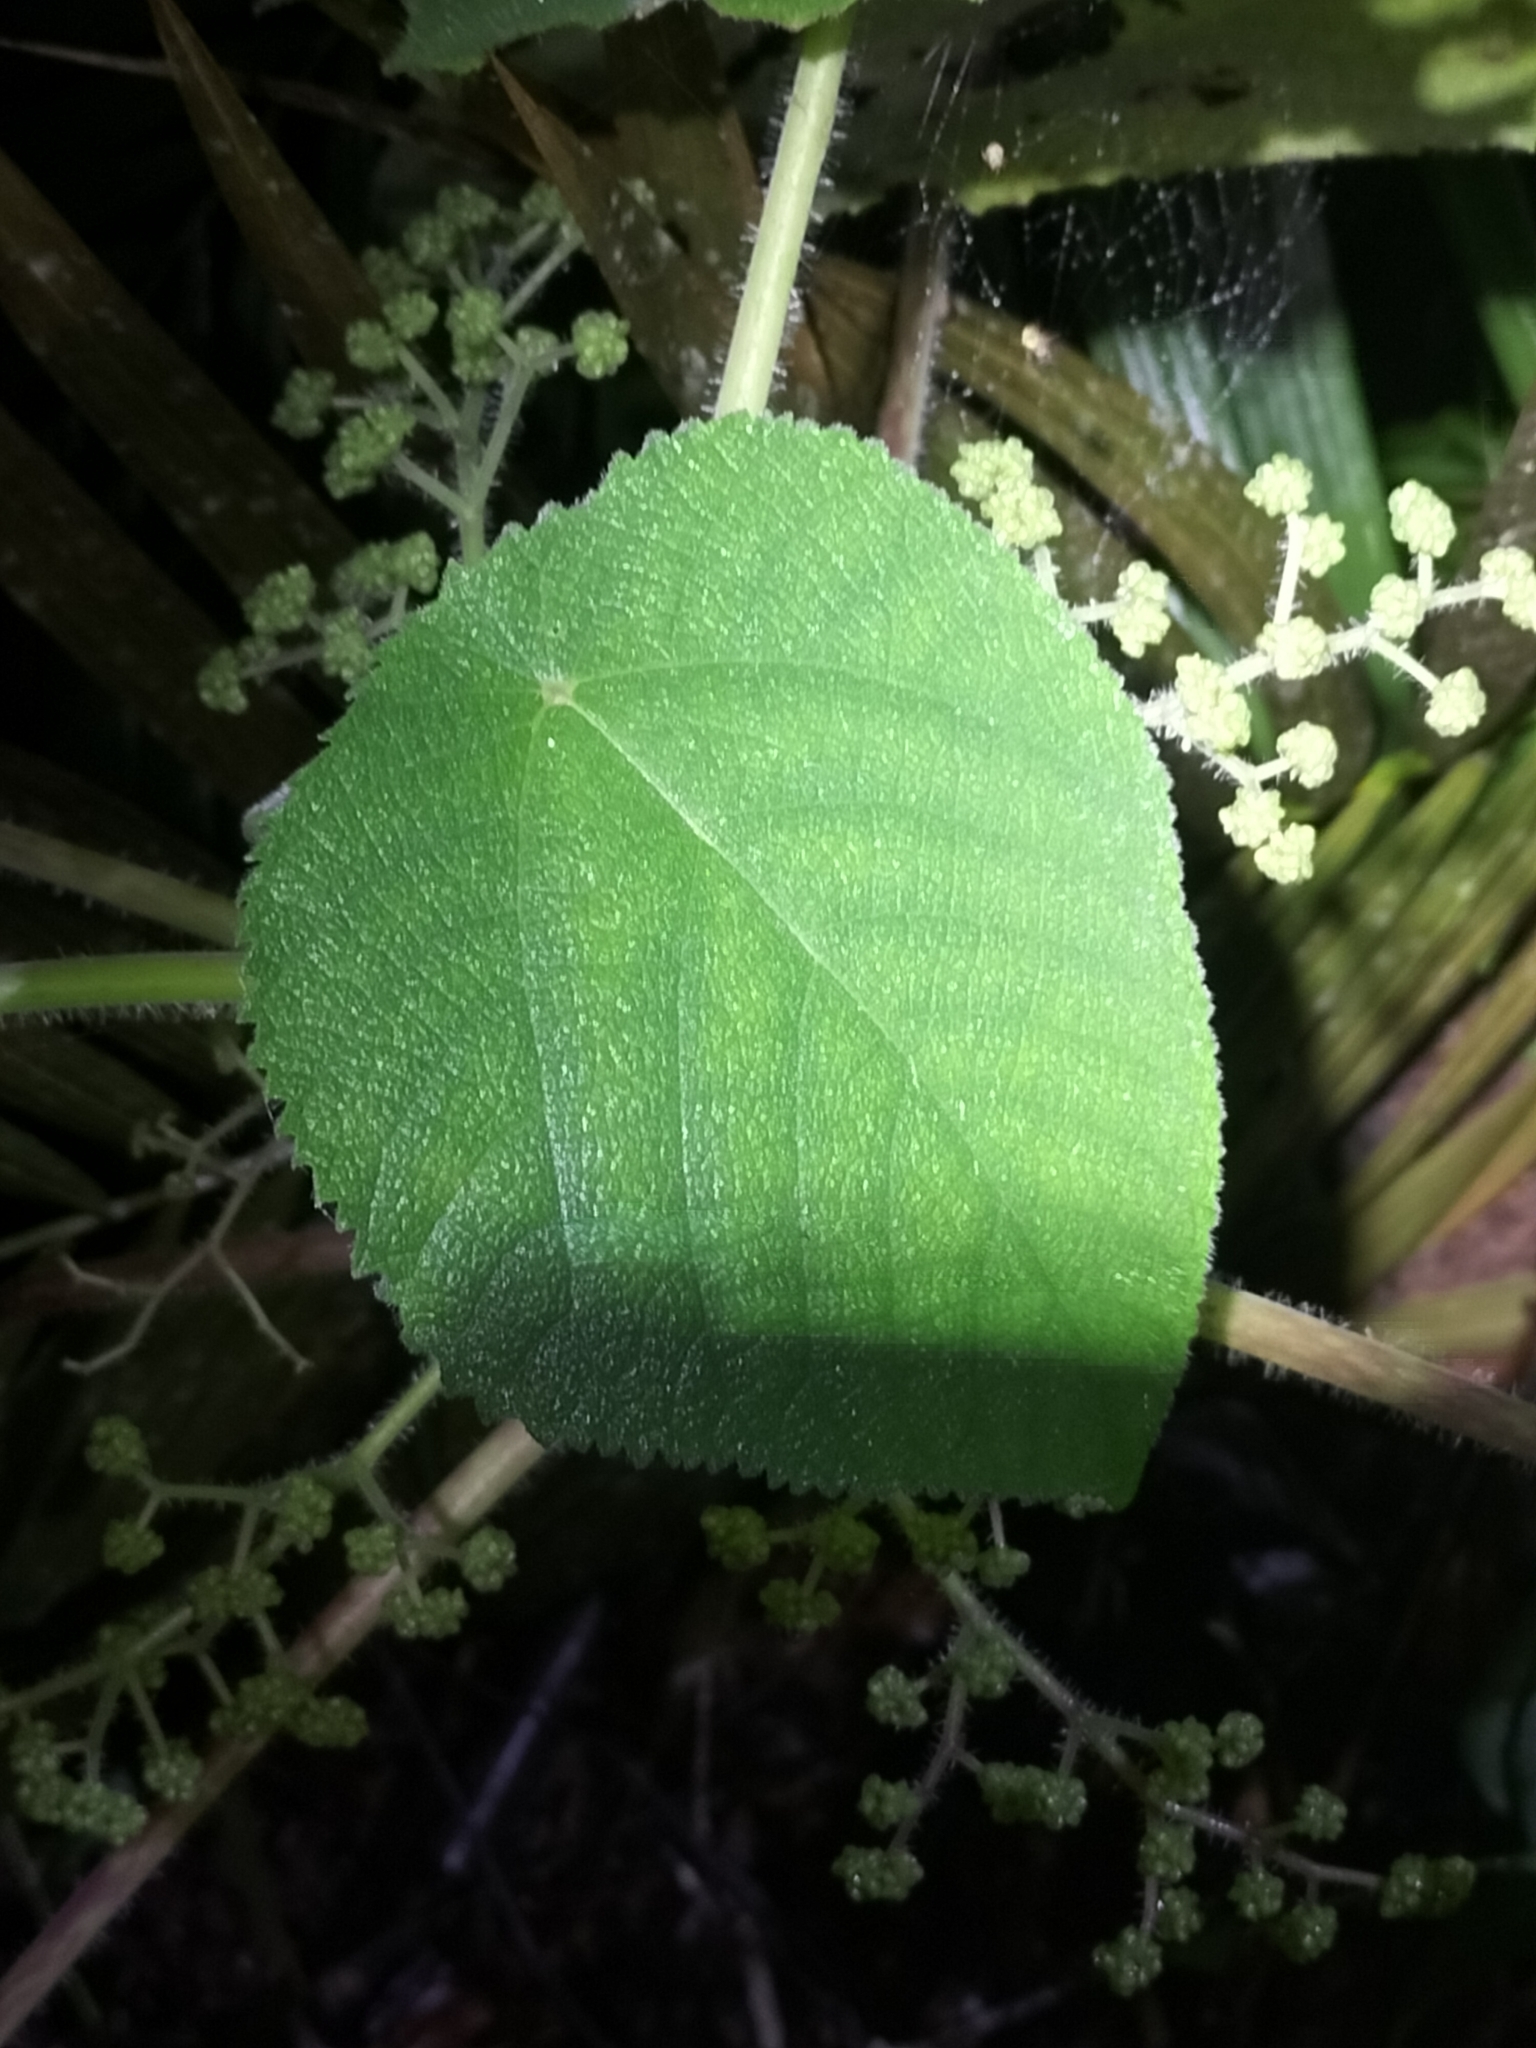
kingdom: Plantae
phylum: Tracheophyta
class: Magnoliopsida
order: Rosales
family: Urticaceae
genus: Dendrocnide
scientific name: Dendrocnide moroides
